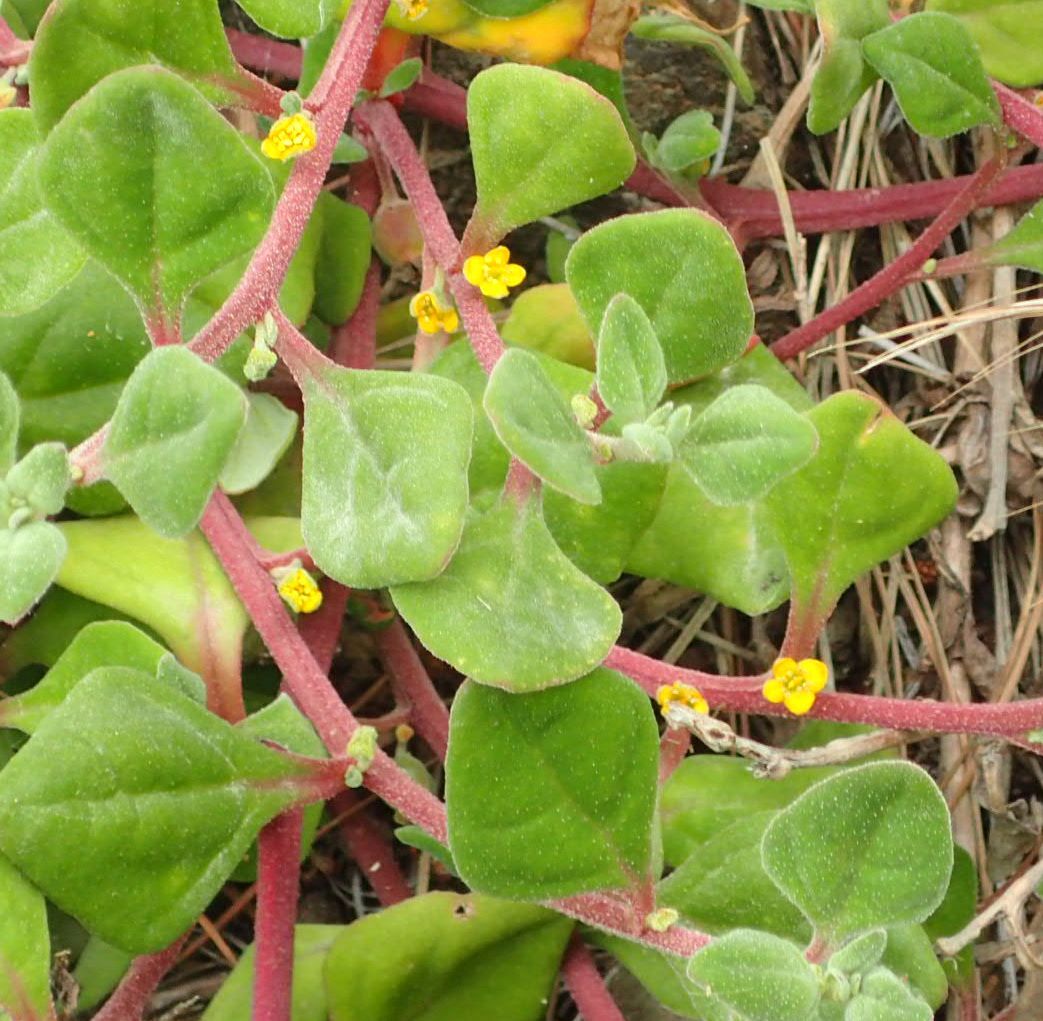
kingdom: Plantae
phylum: Tracheophyta
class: Magnoliopsida
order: Caryophyllales
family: Aizoaceae
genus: Tetragonia
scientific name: Tetragonia implexicoma
